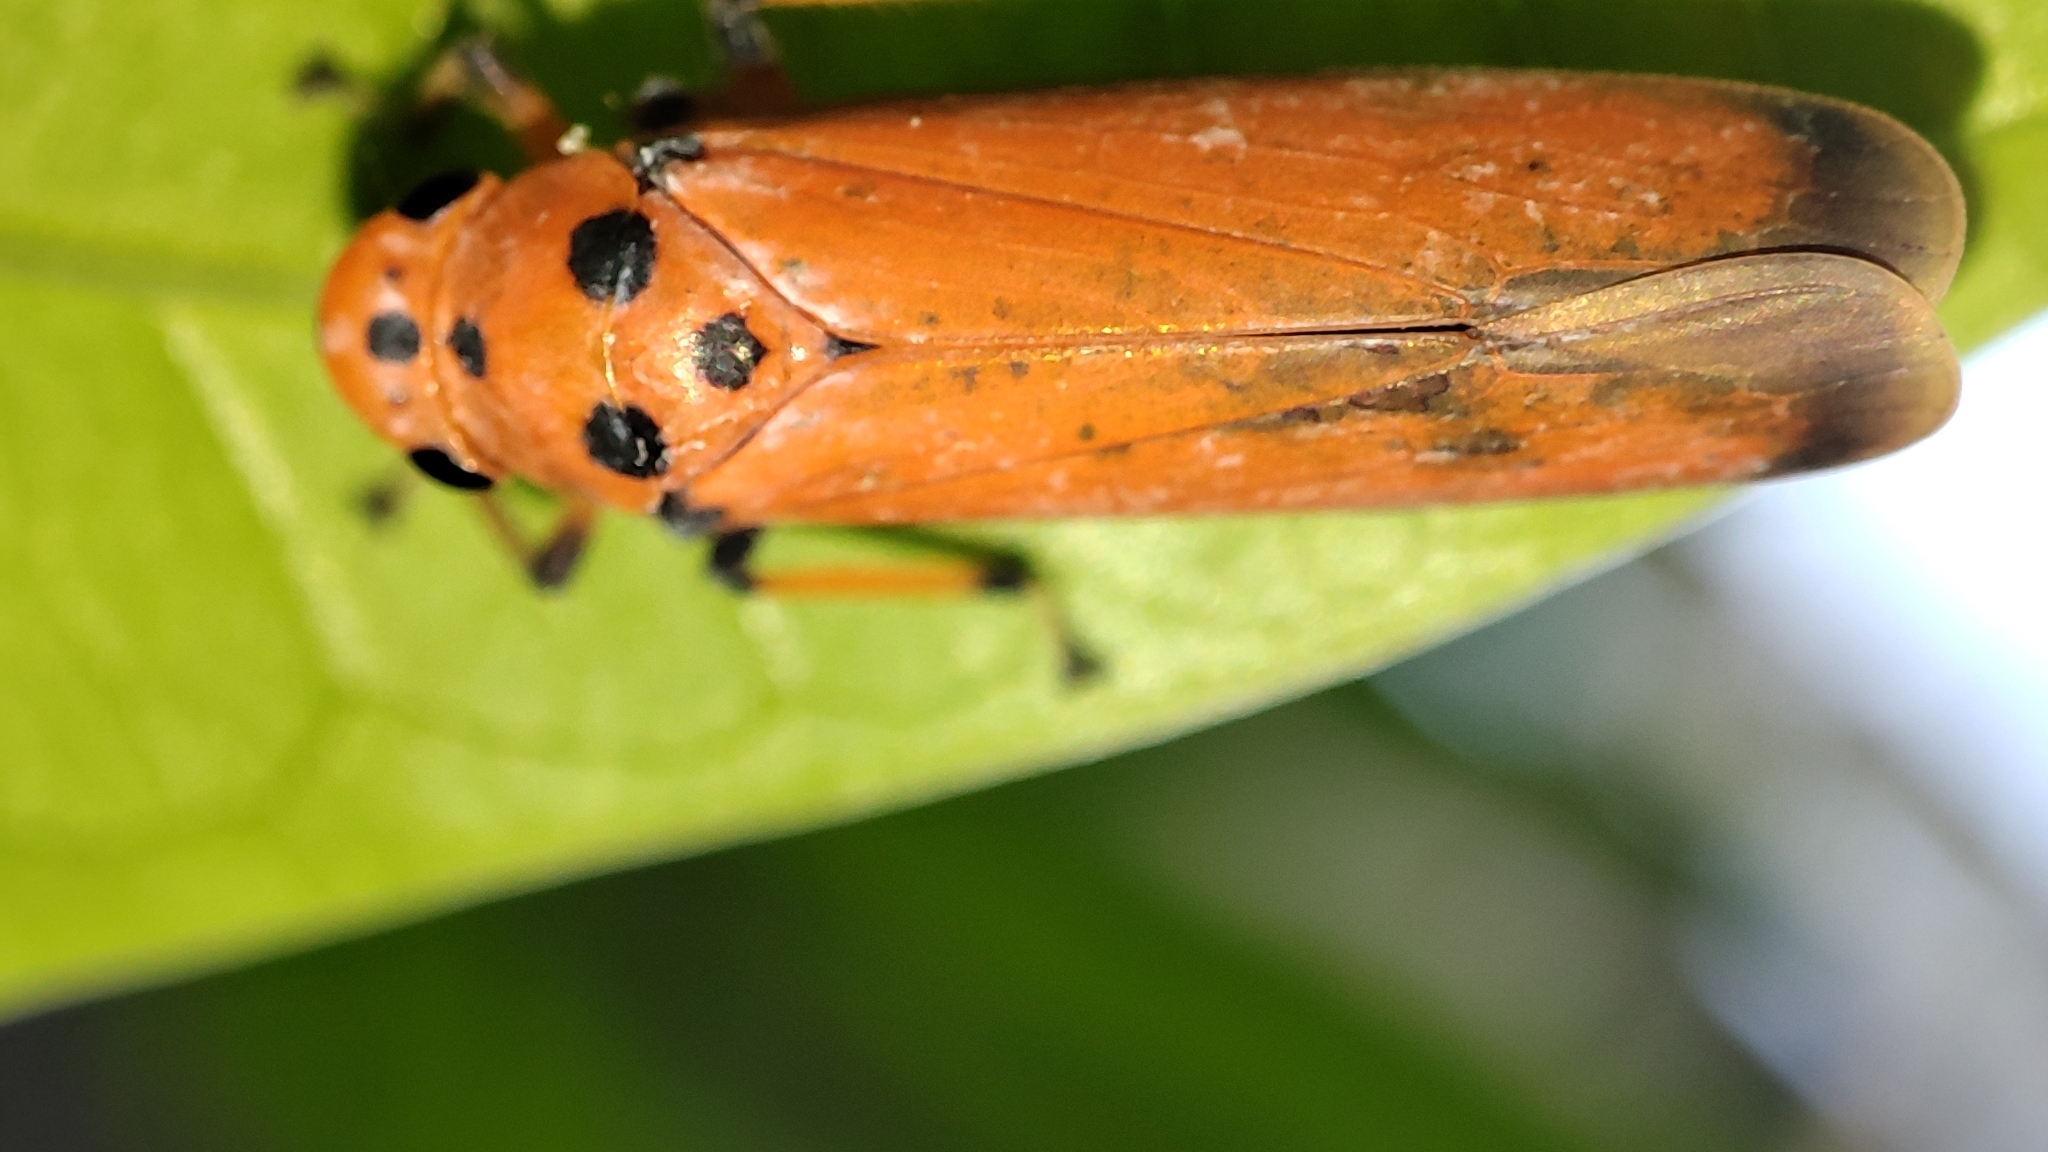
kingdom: Animalia
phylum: Arthropoda
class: Insecta
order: Hemiptera
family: Cicadellidae
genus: Bothrogonia
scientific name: Bothrogonia addita
